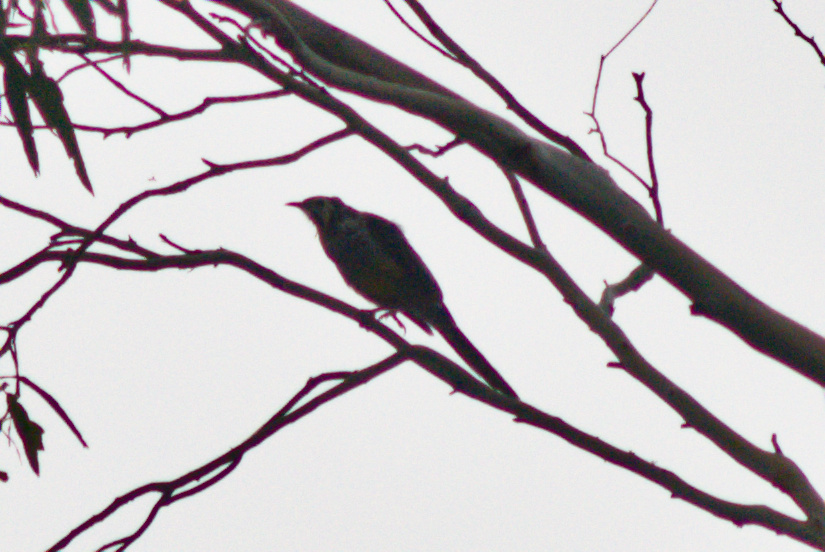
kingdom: Animalia
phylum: Chordata
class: Aves
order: Passeriformes
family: Meliphagidae
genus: Anthochaera
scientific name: Anthochaera paradoxa
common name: Yellow wattlebird
